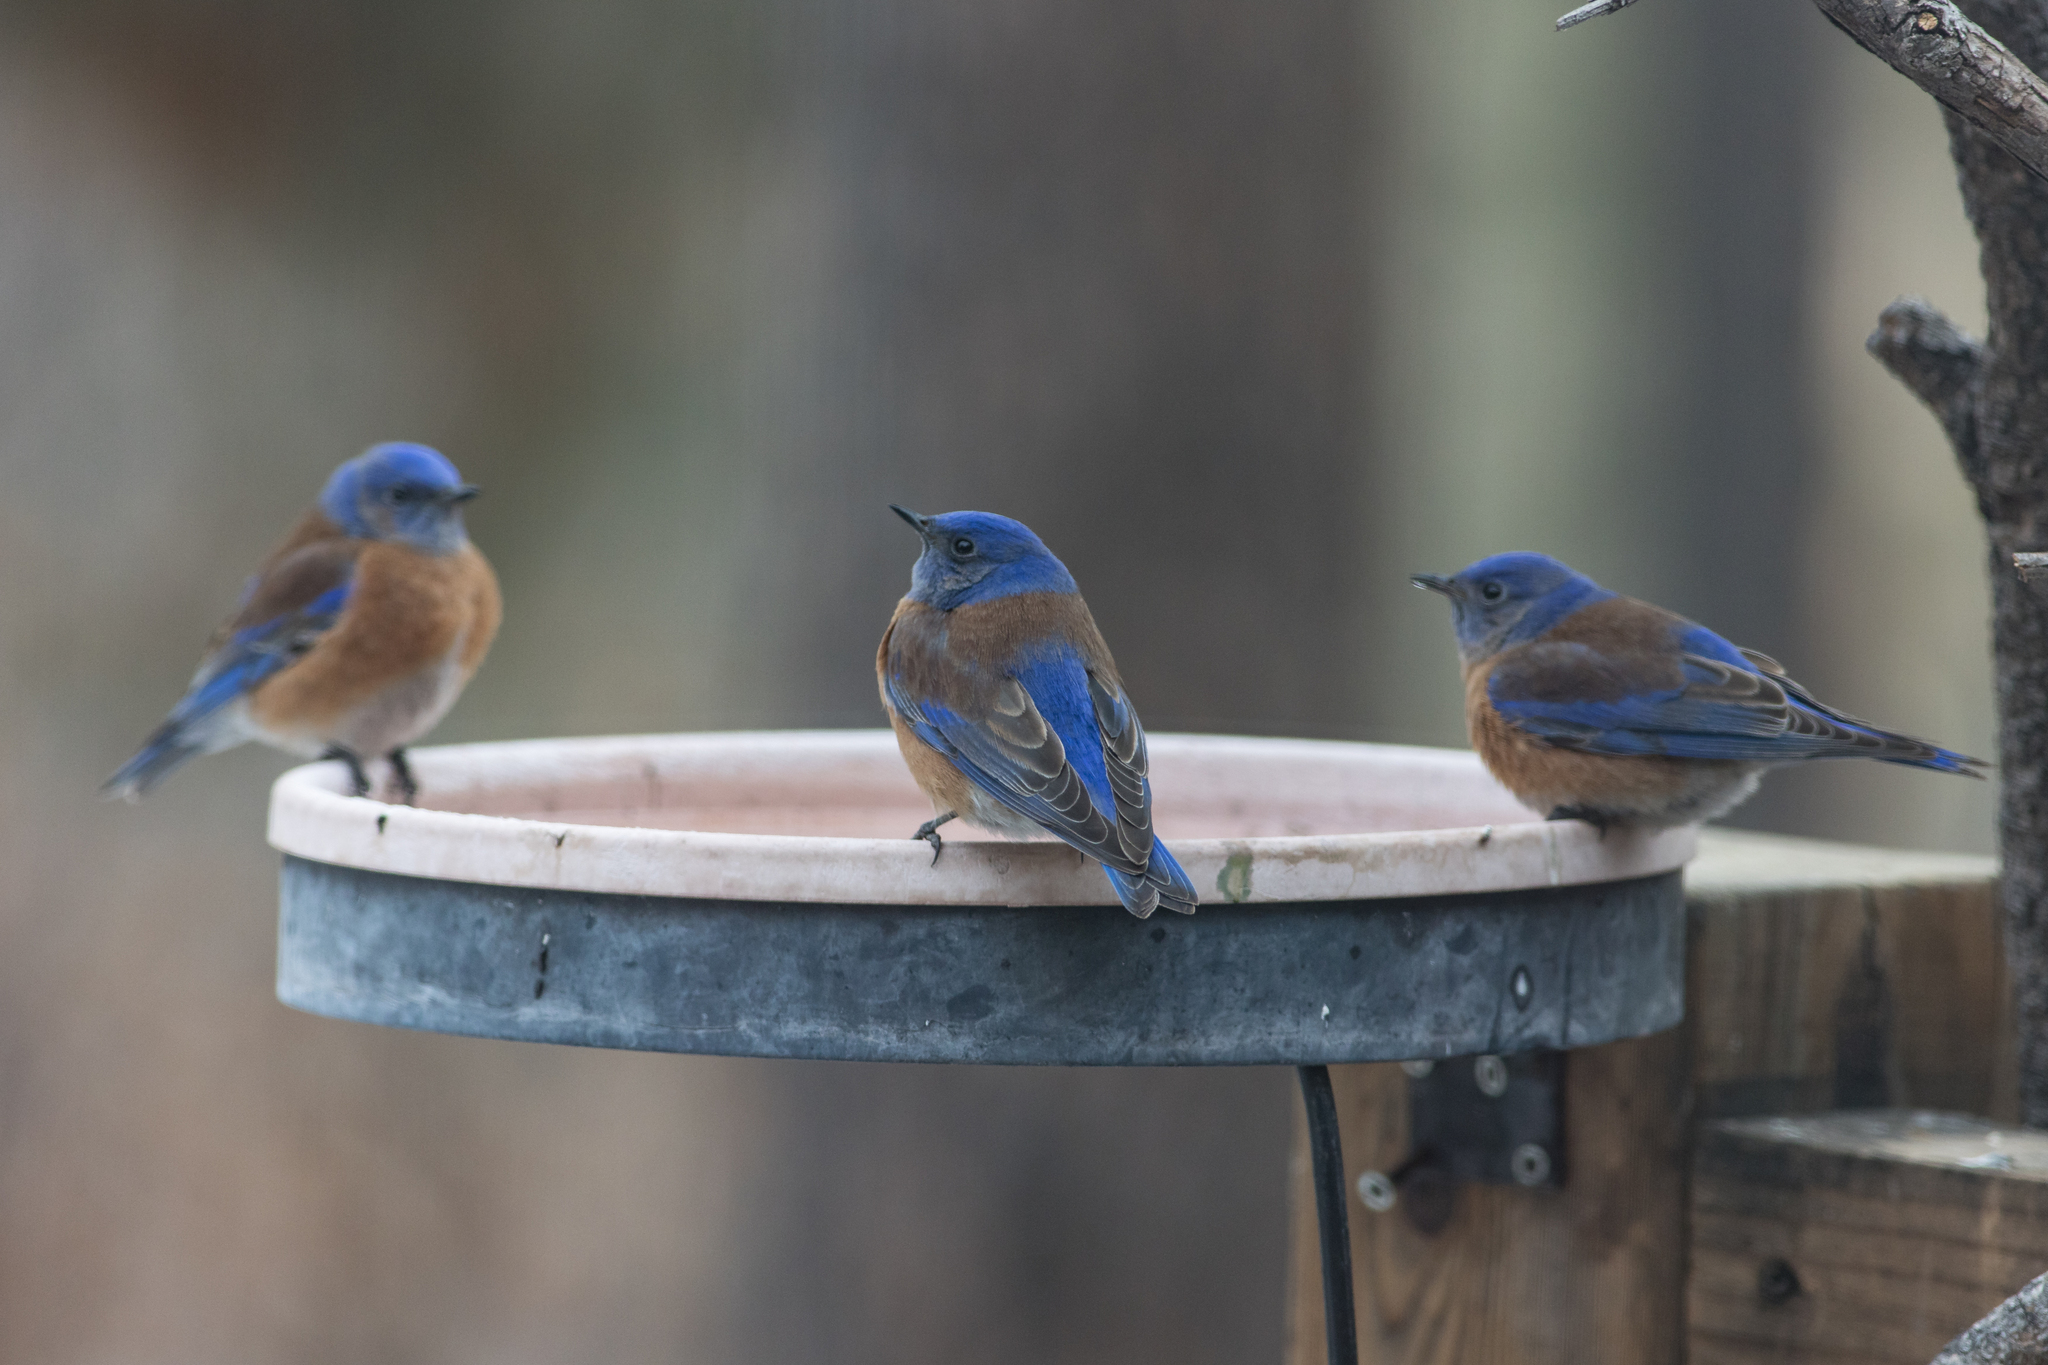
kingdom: Animalia
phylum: Chordata
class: Aves
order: Passeriformes
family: Turdidae
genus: Sialia
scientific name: Sialia mexicana
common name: Western bluebird
